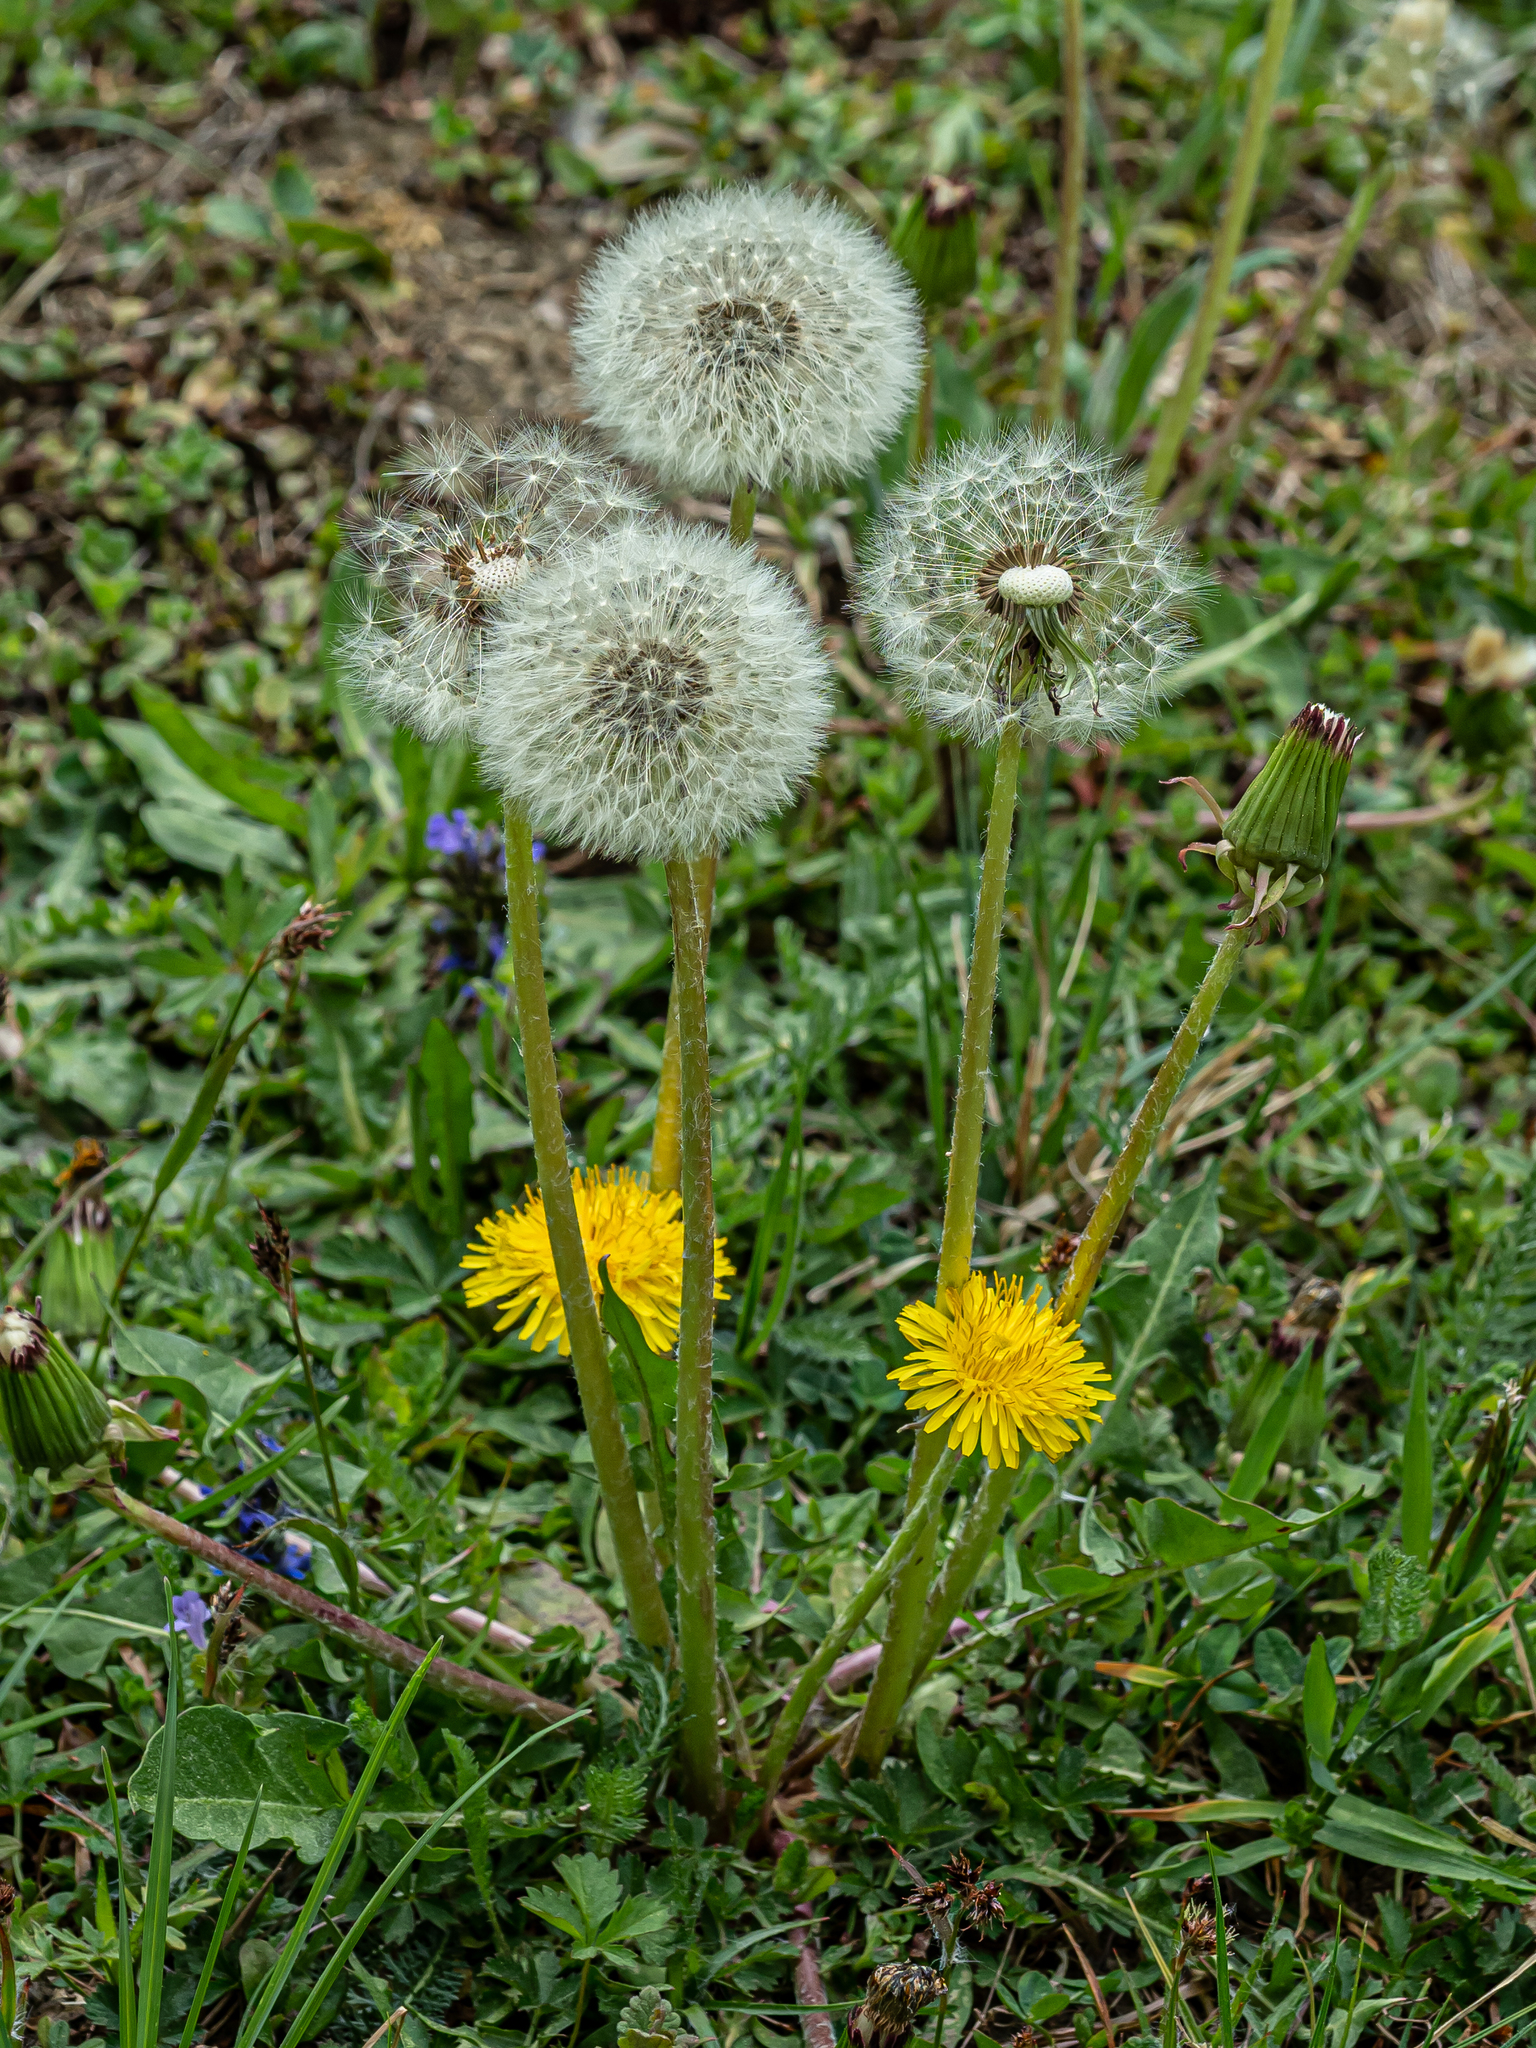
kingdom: Plantae
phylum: Tracheophyta
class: Magnoliopsida
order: Asterales
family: Asteraceae
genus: Taraxacum
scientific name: Taraxacum officinale
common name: Common dandelion
